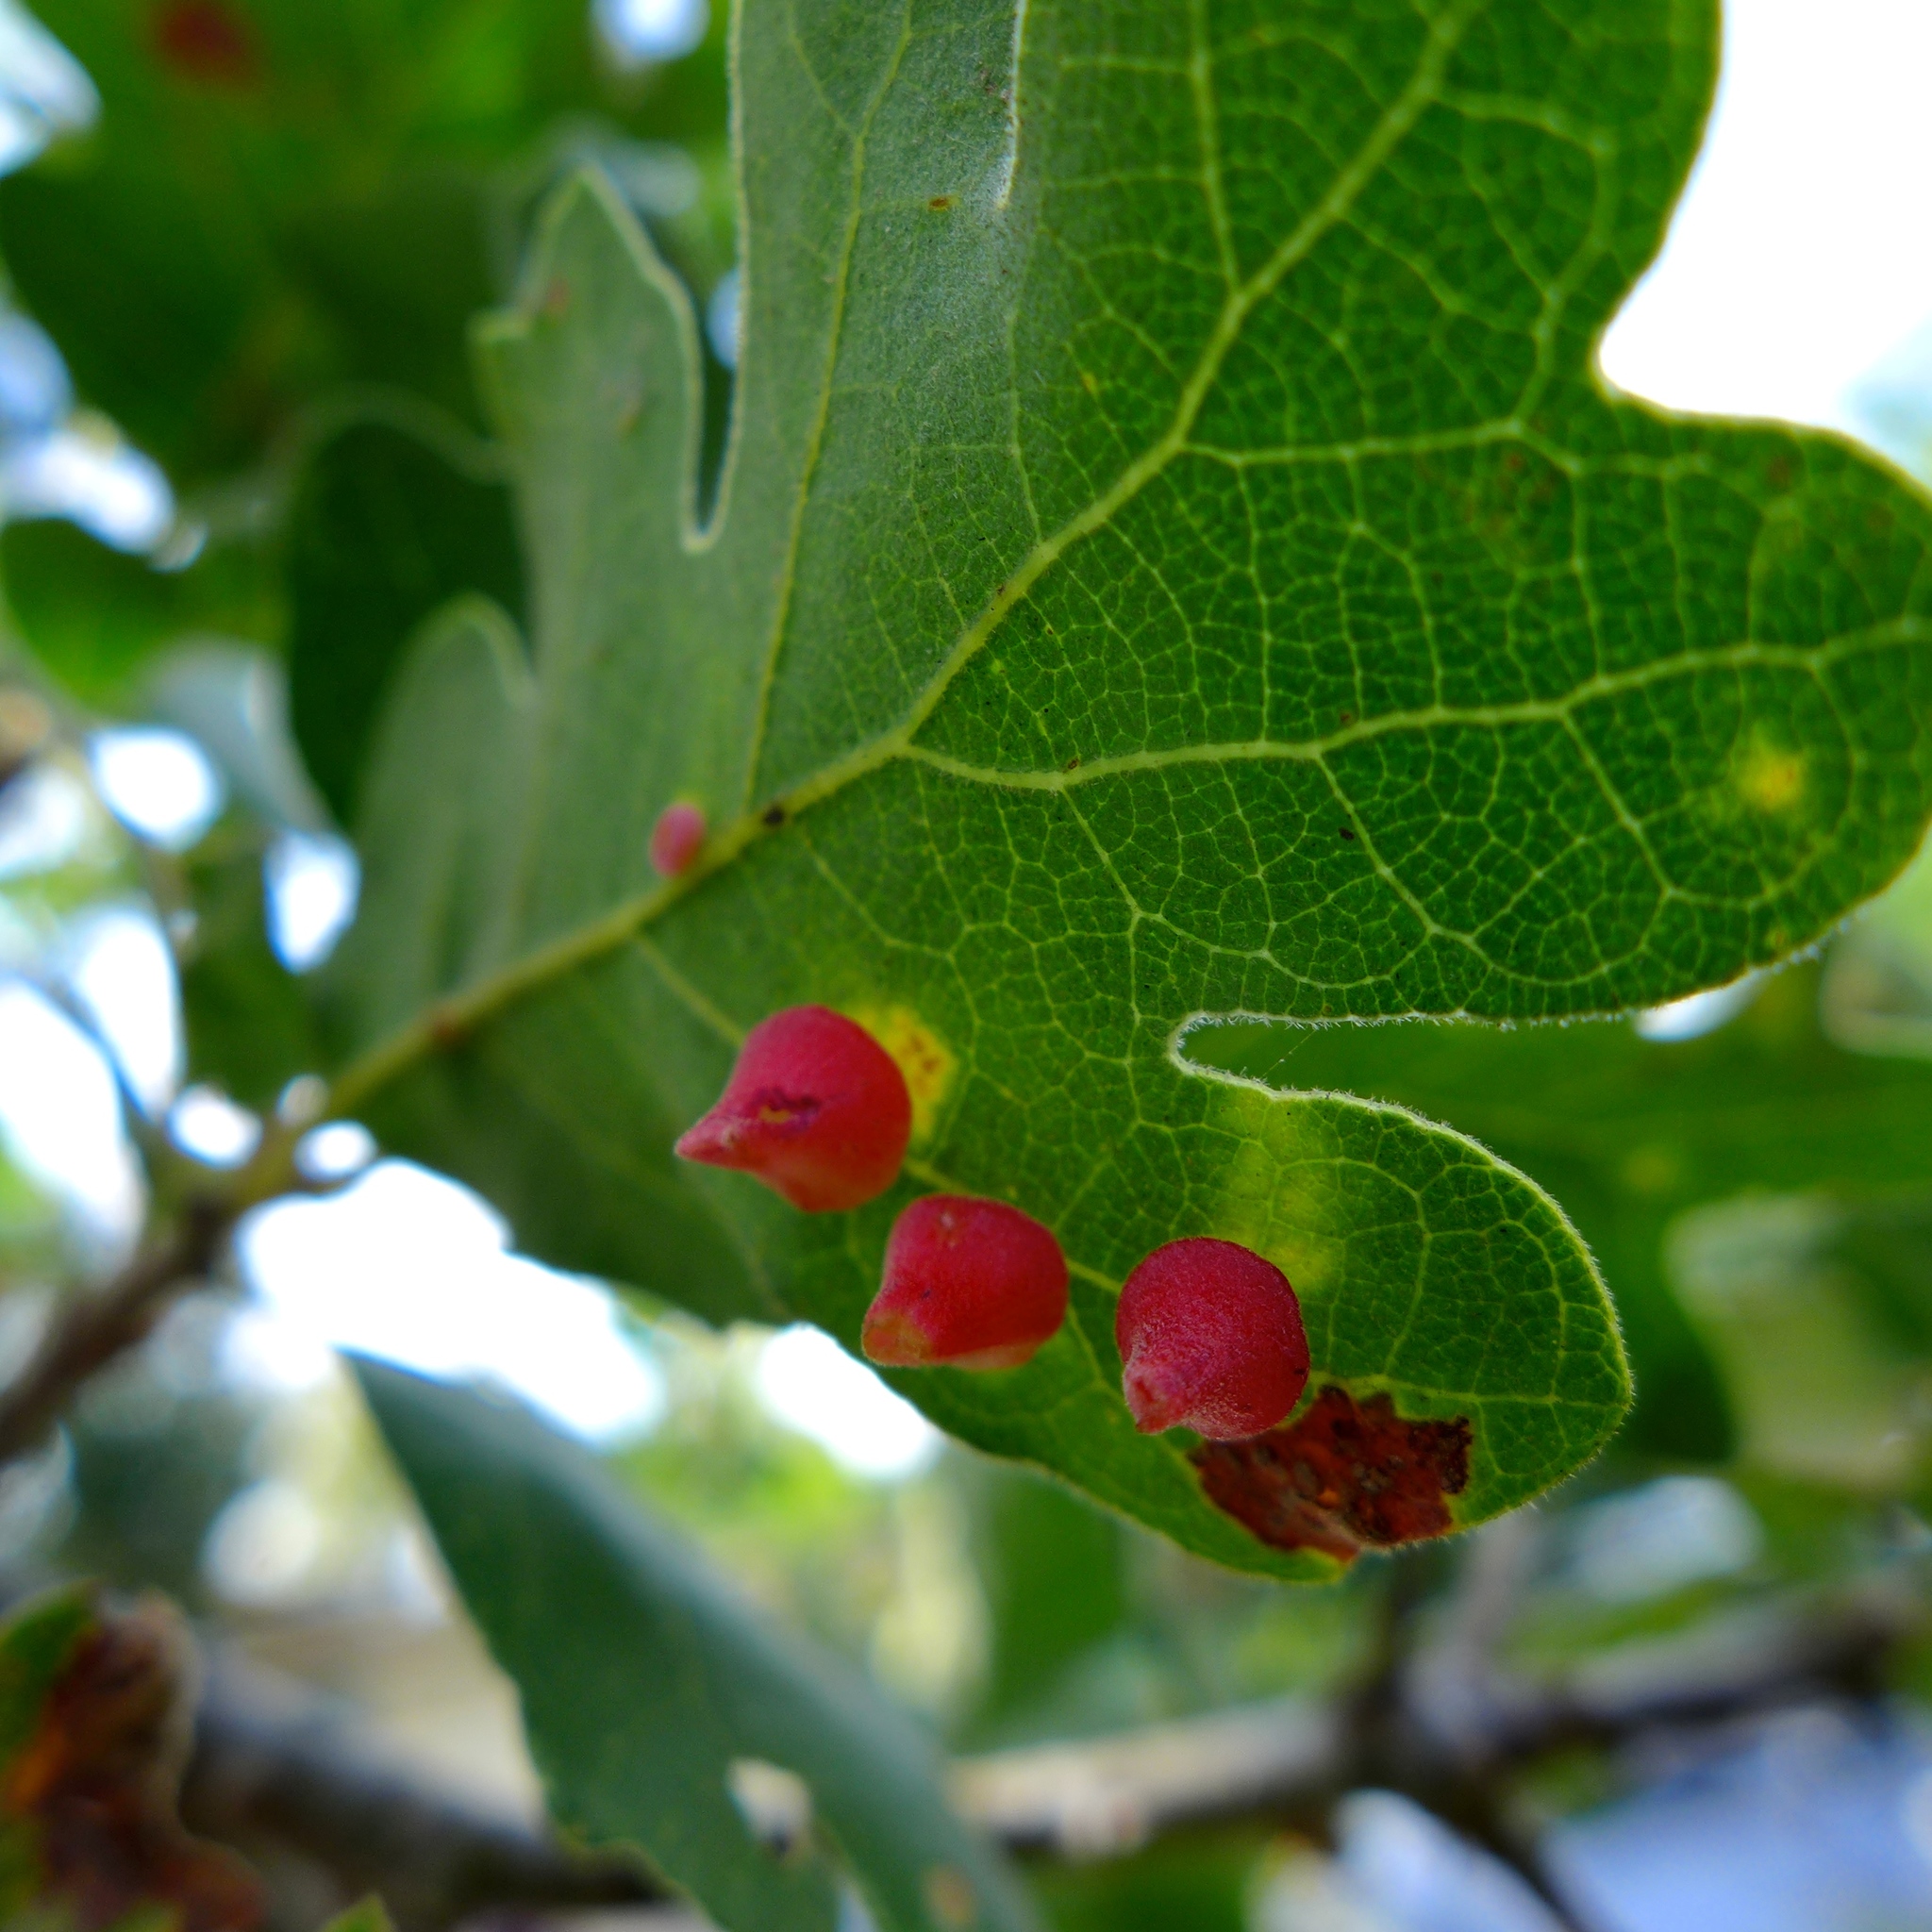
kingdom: Animalia
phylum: Arthropoda
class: Insecta
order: Hymenoptera
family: Cynipidae
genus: Andricus
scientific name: Andricus
